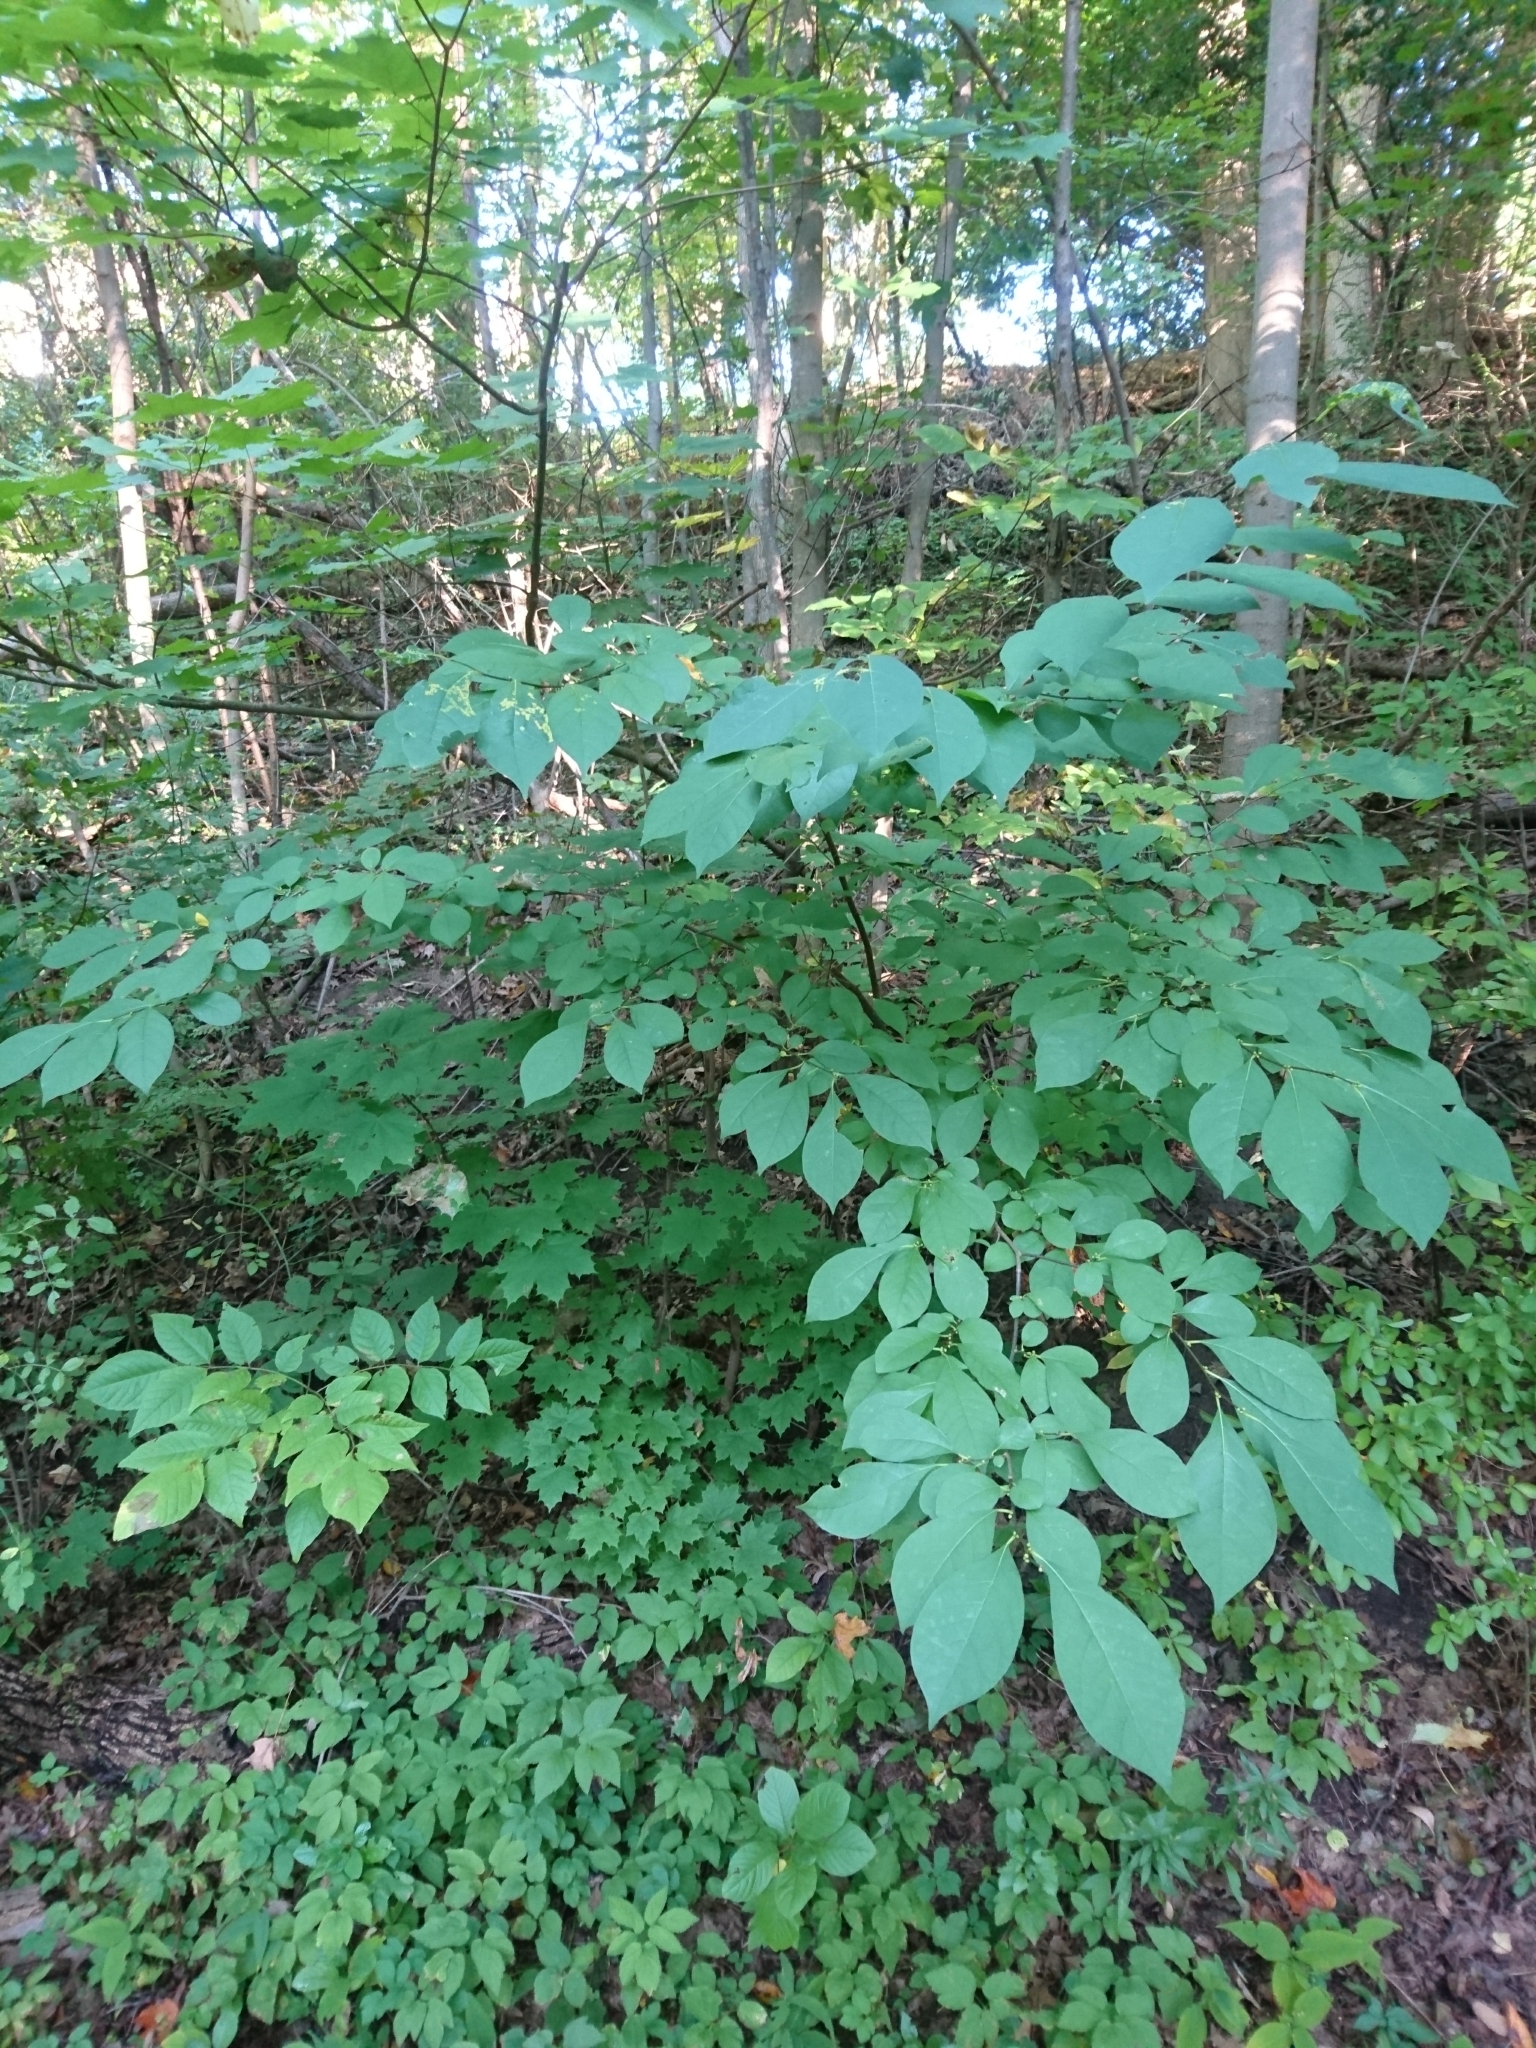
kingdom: Plantae
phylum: Tracheophyta
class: Magnoliopsida
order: Laurales
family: Lauraceae
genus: Lindera
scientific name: Lindera benzoin
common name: Spicebush
